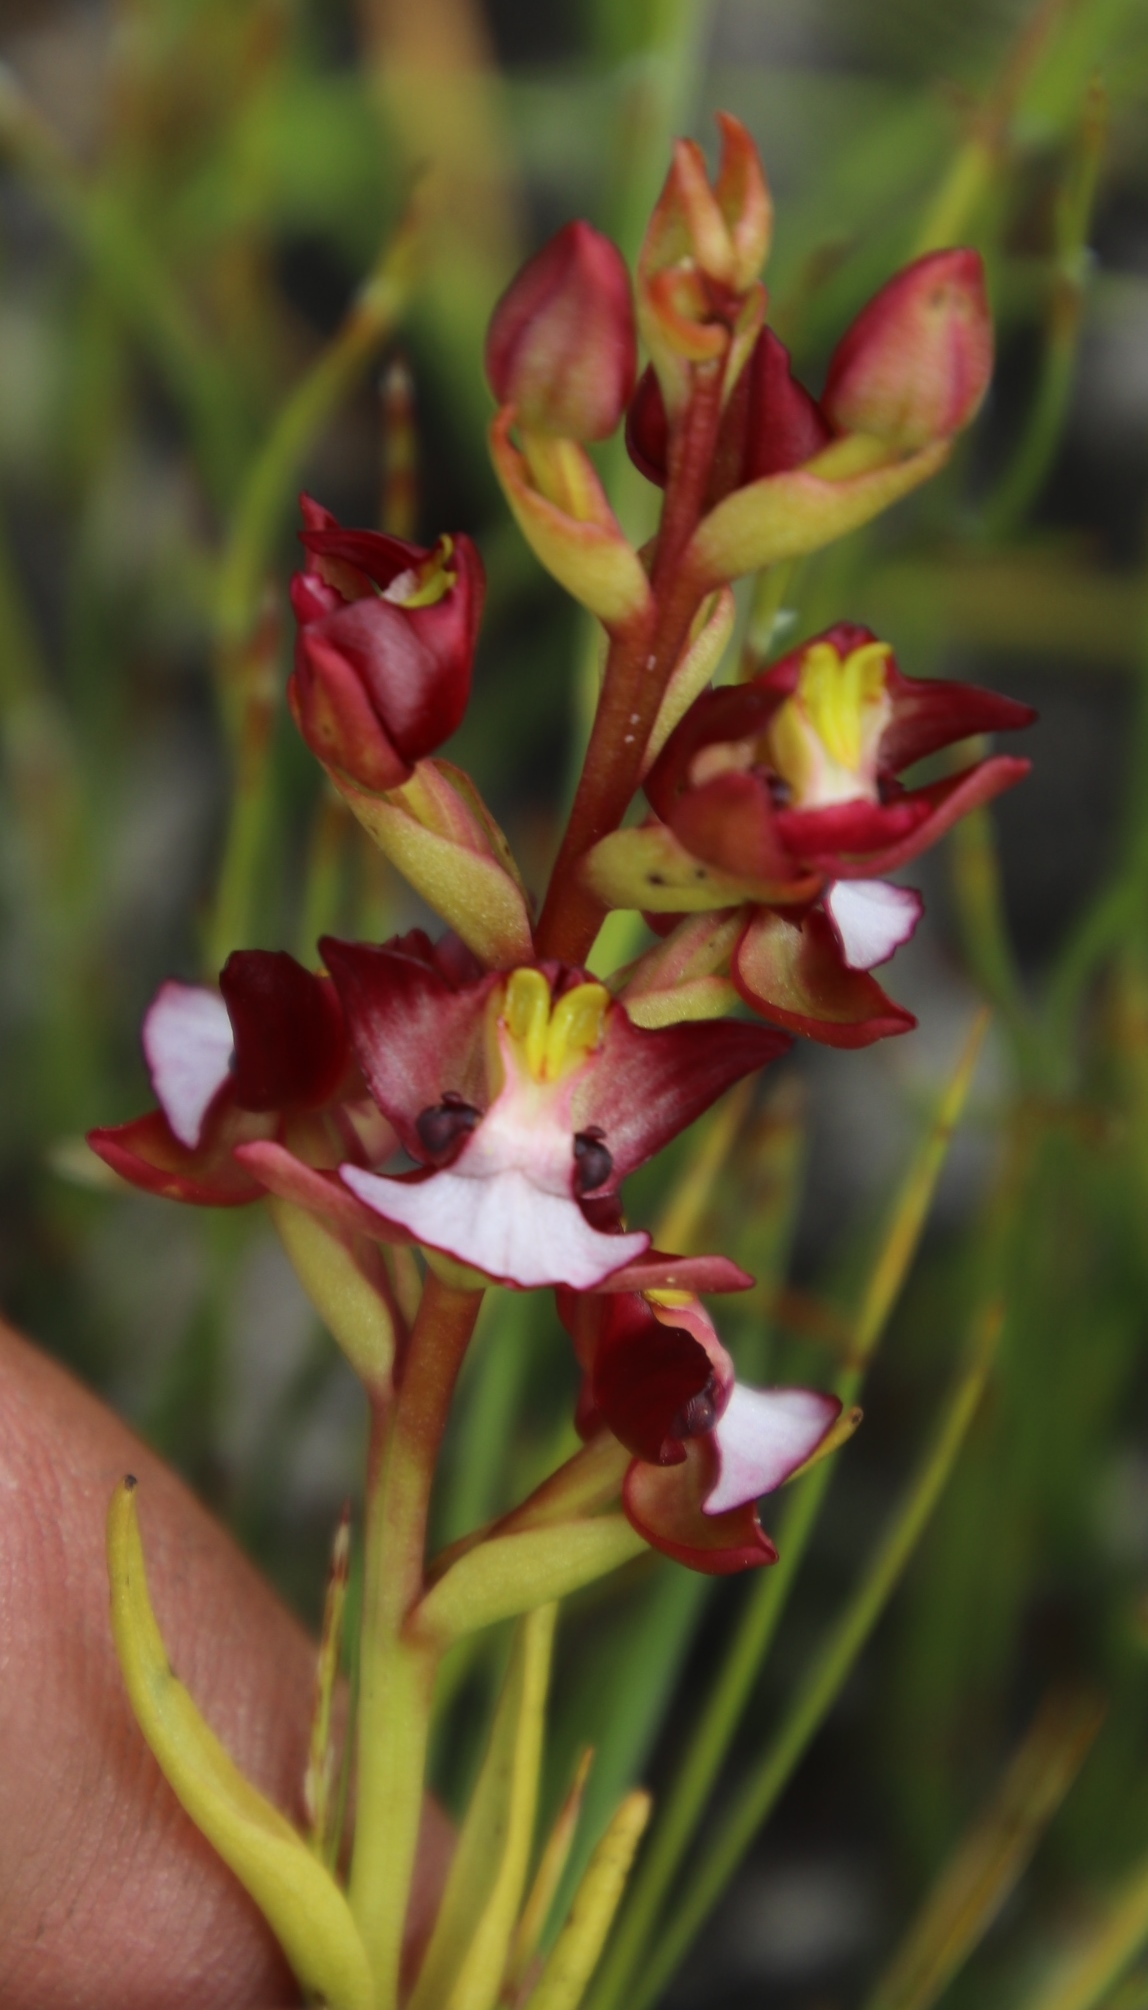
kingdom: Plantae
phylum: Tracheophyta
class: Liliopsida
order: Asparagales
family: Orchidaceae
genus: Evotella
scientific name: Evotella rubiginosa
